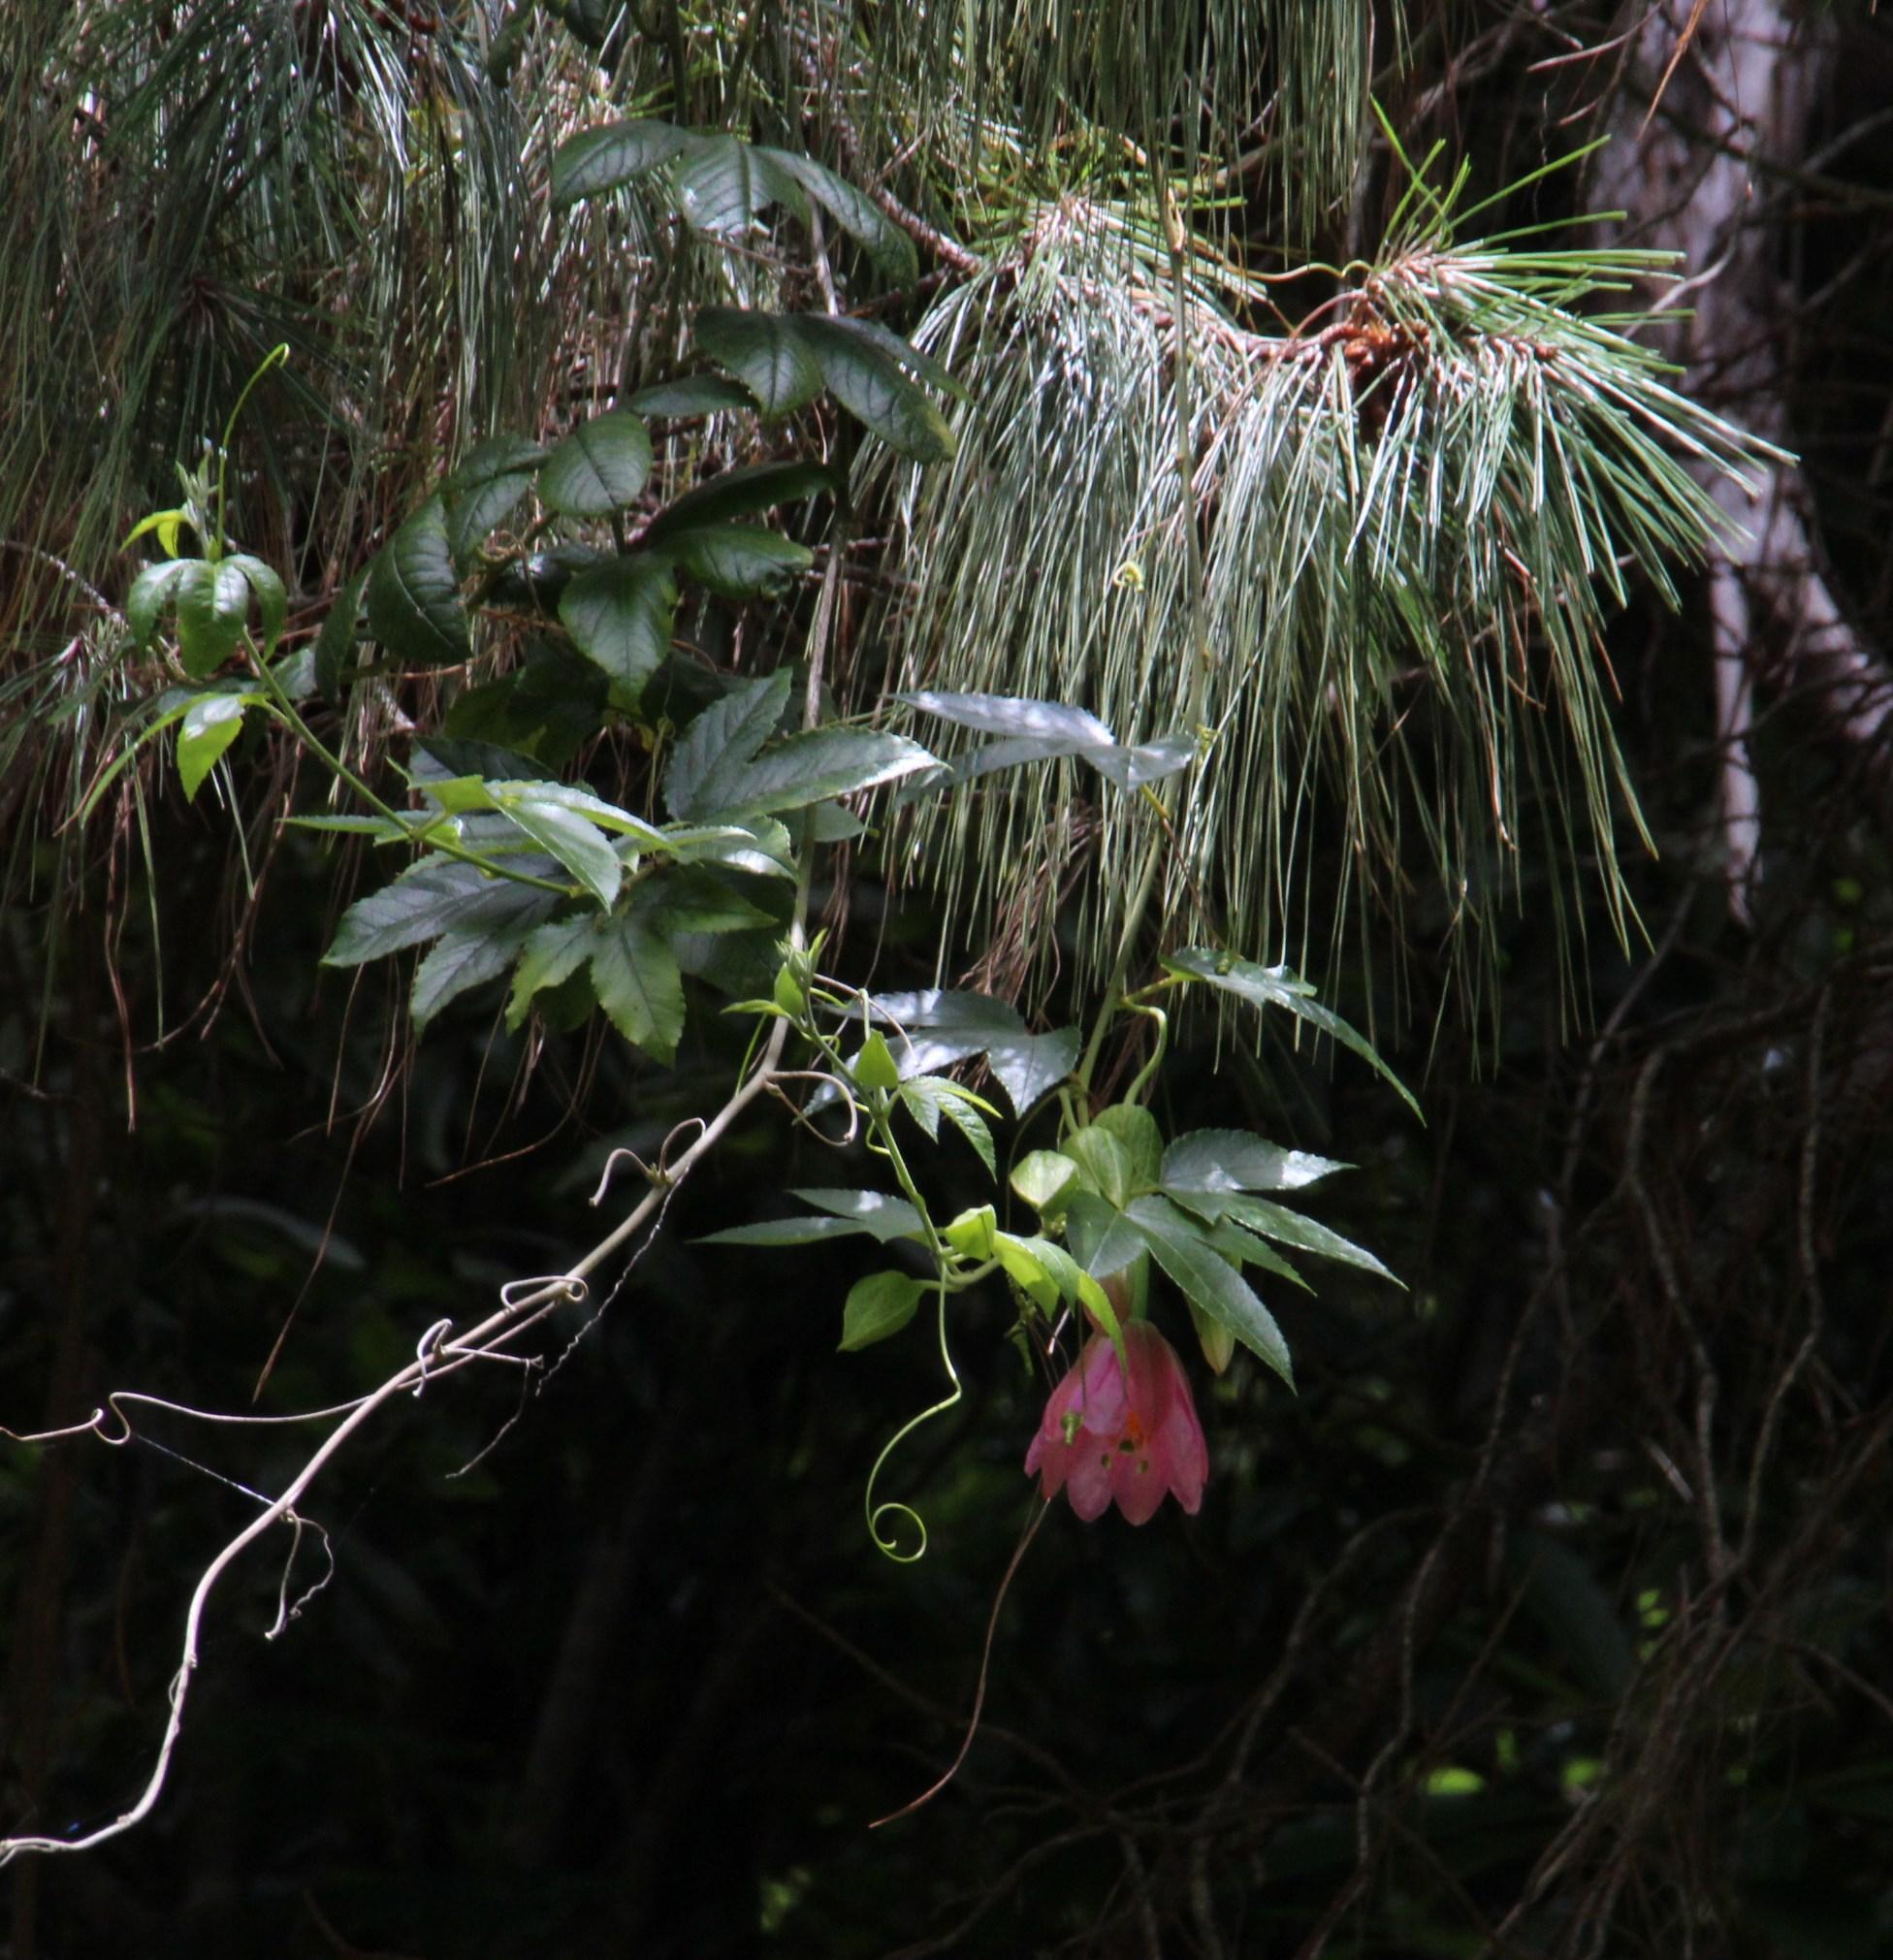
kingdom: Plantae
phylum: Tracheophyta
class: Magnoliopsida
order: Malpighiales
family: Passifloraceae
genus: Passiflora
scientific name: Passiflora tarminiana
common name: Banana poka
